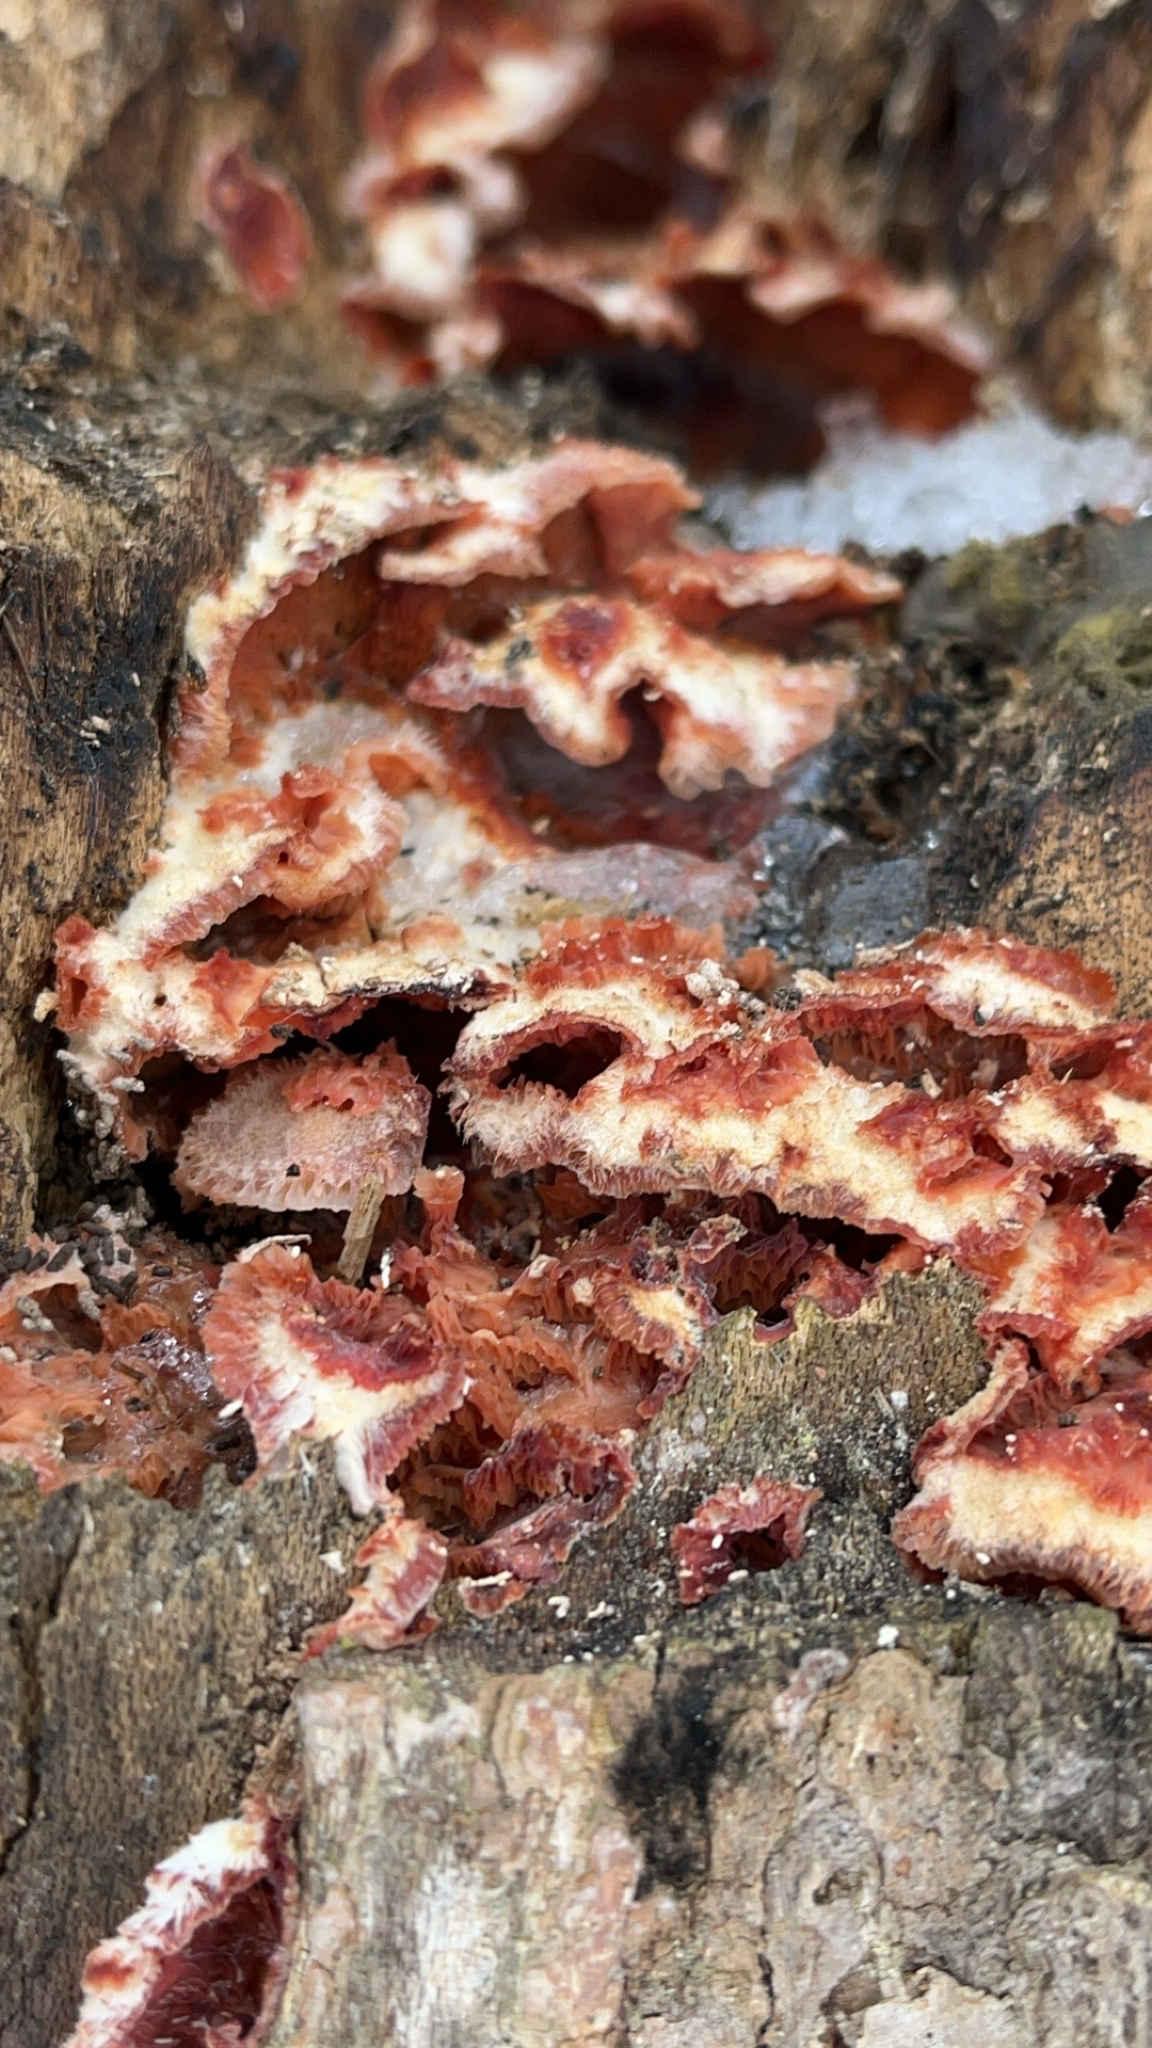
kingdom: Fungi
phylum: Basidiomycota
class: Agaricomycetes
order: Polyporales
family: Meruliaceae
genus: Phlebia
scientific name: Phlebia tremellosa
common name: Jelly rot
